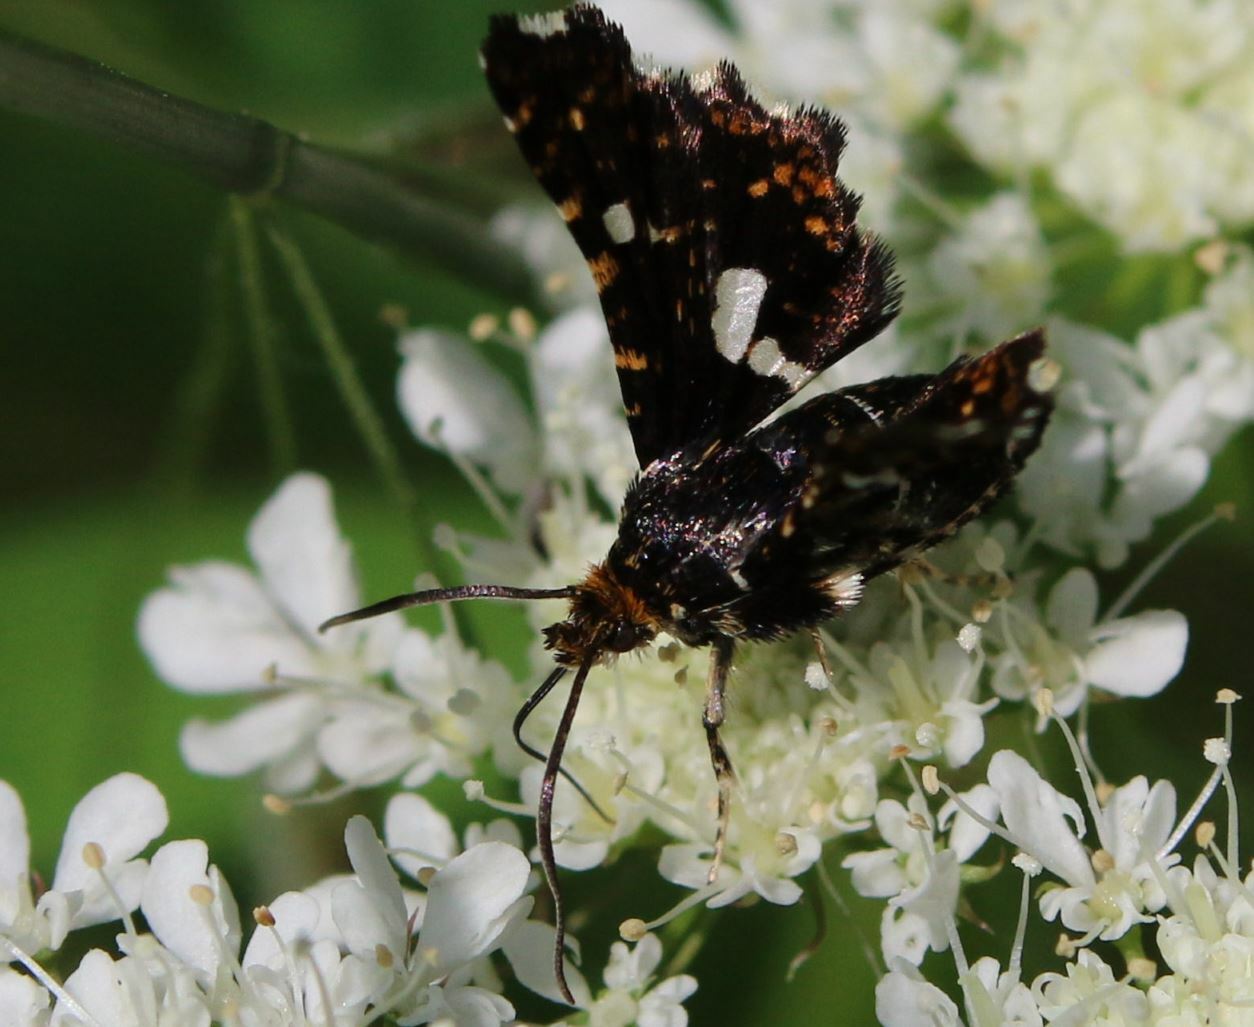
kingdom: Animalia
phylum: Arthropoda
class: Insecta
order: Lepidoptera
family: Thyrididae
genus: Thyris
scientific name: Thyris fenestrella
